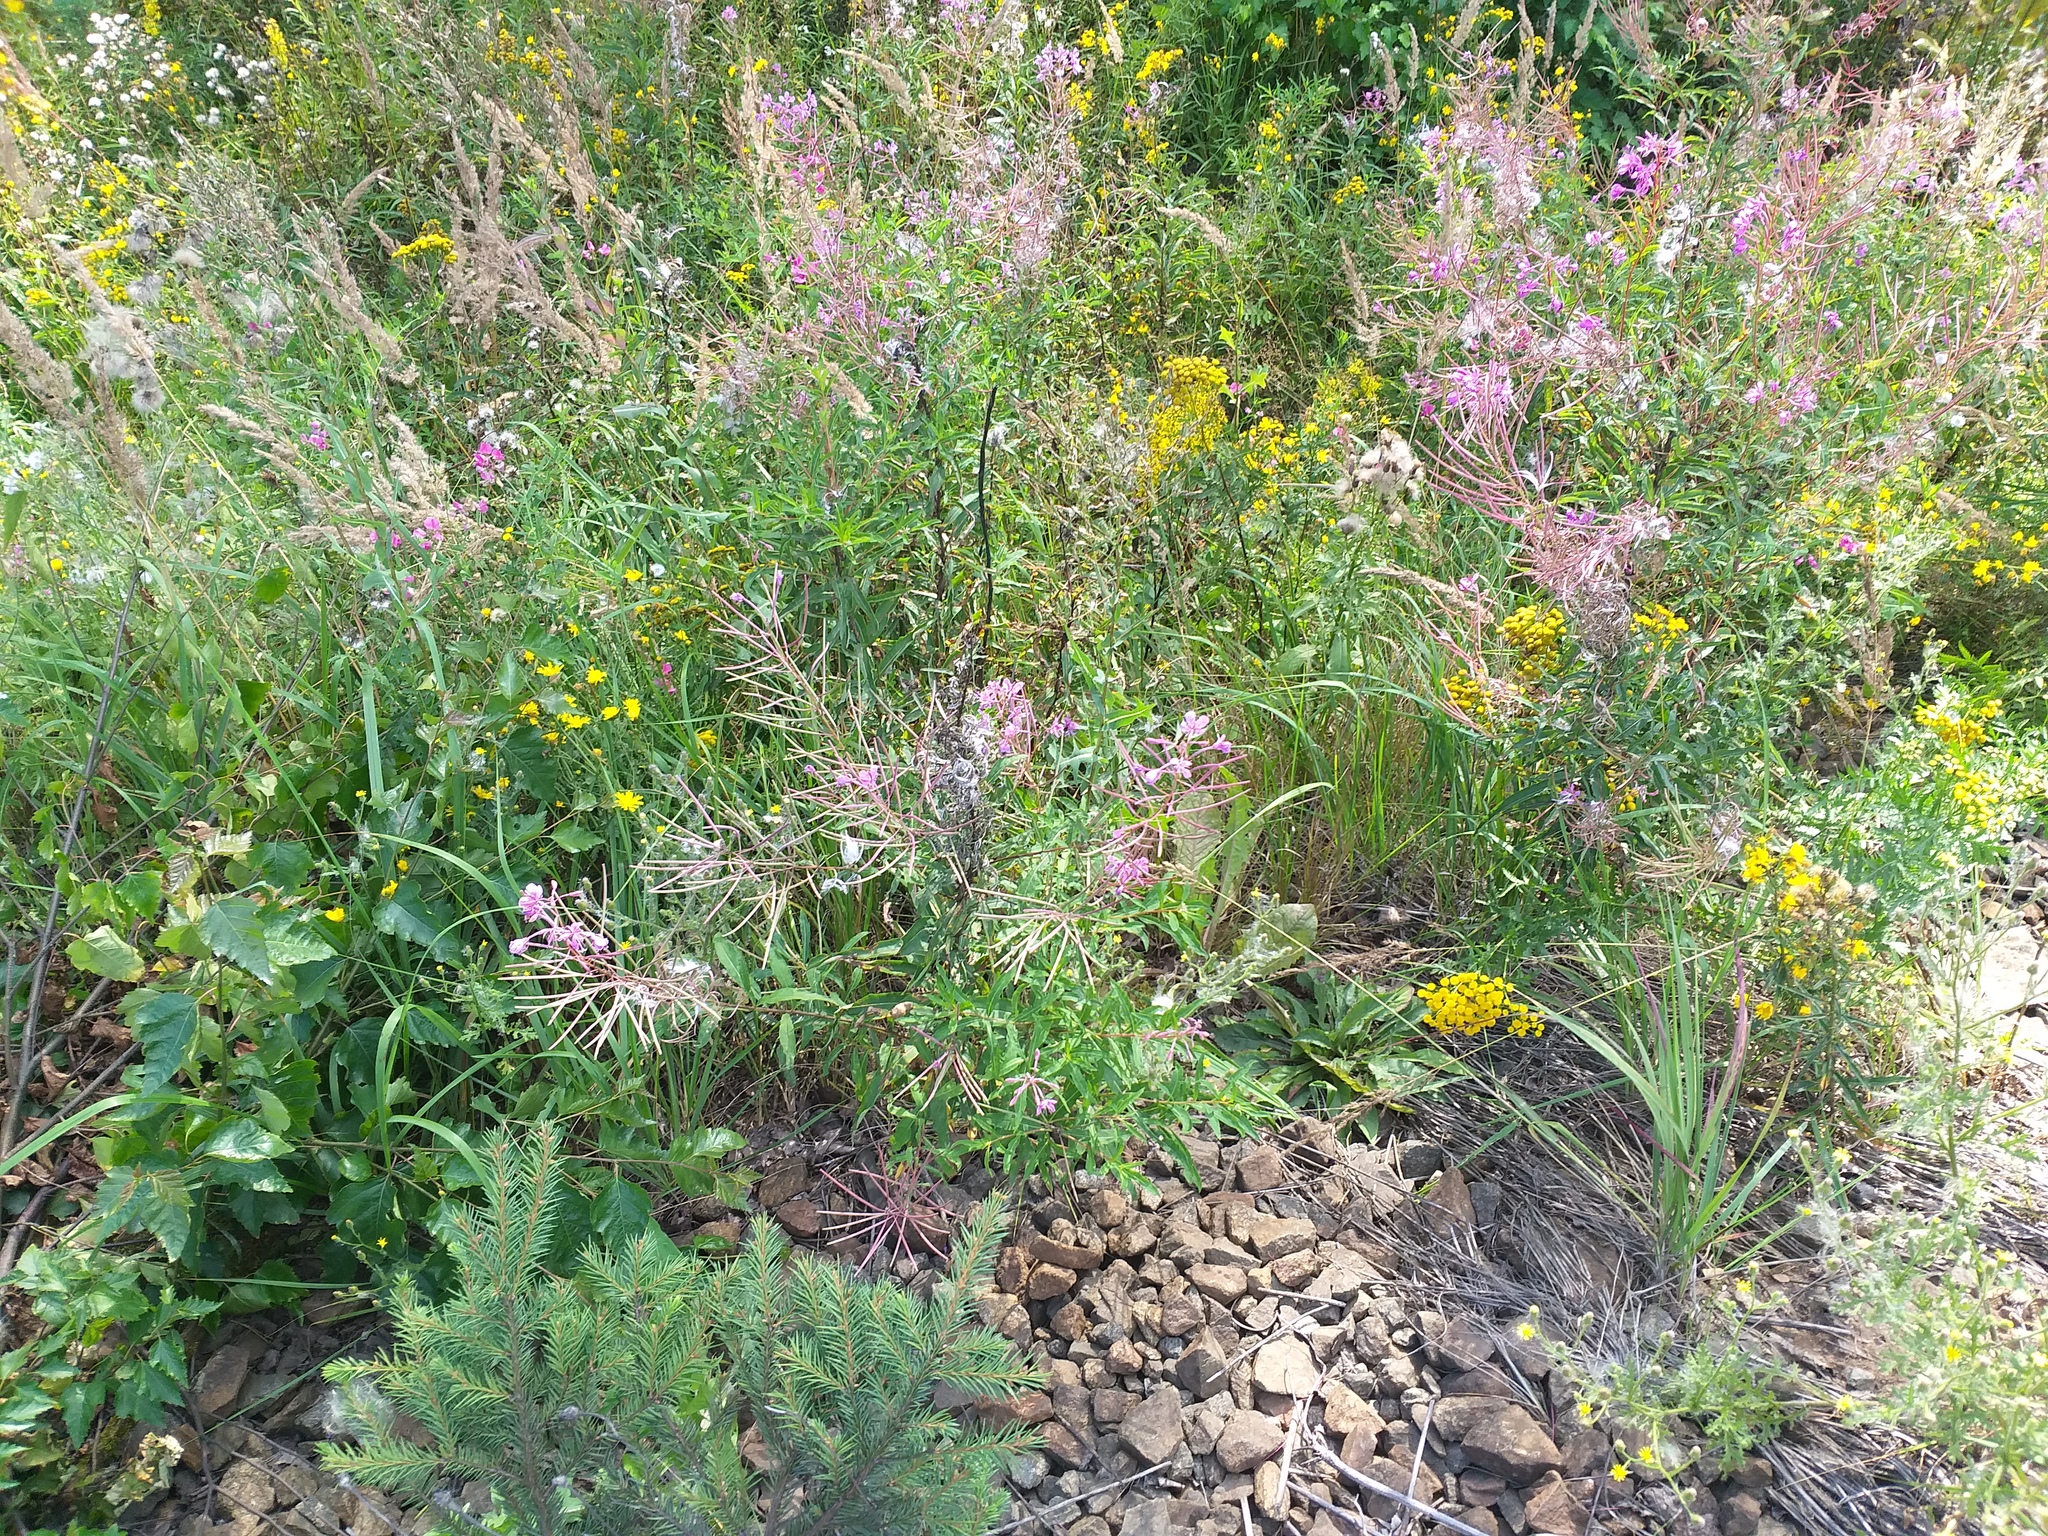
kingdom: Plantae
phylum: Tracheophyta
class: Magnoliopsida
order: Myrtales
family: Onagraceae
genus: Chamaenerion
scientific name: Chamaenerion angustifolium
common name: Fireweed
